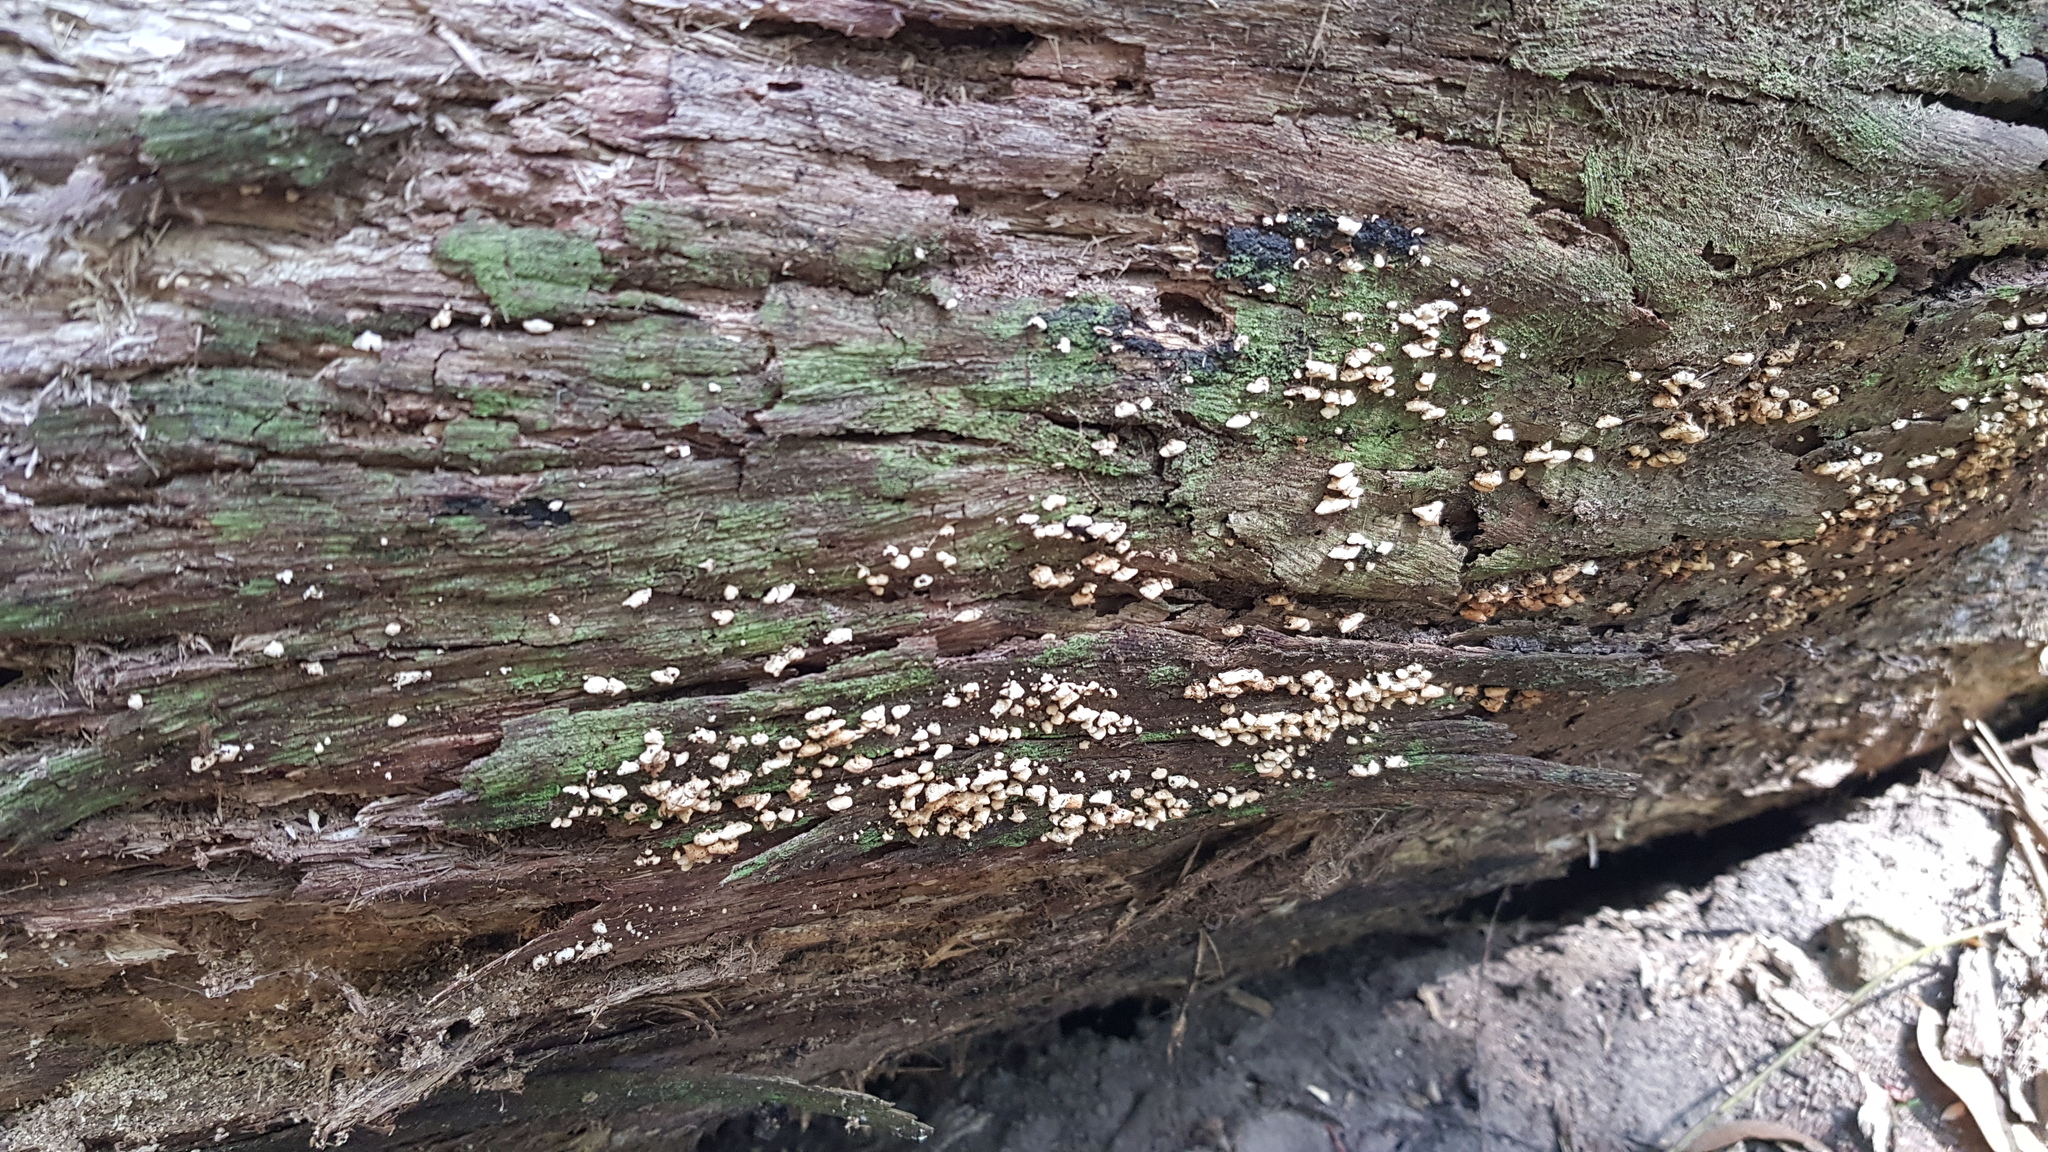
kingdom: Fungi
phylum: Basidiomycota
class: Agaricomycetes
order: Agaricales
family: Mycenaceae
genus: Panellus
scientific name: Panellus luxfilamentus
